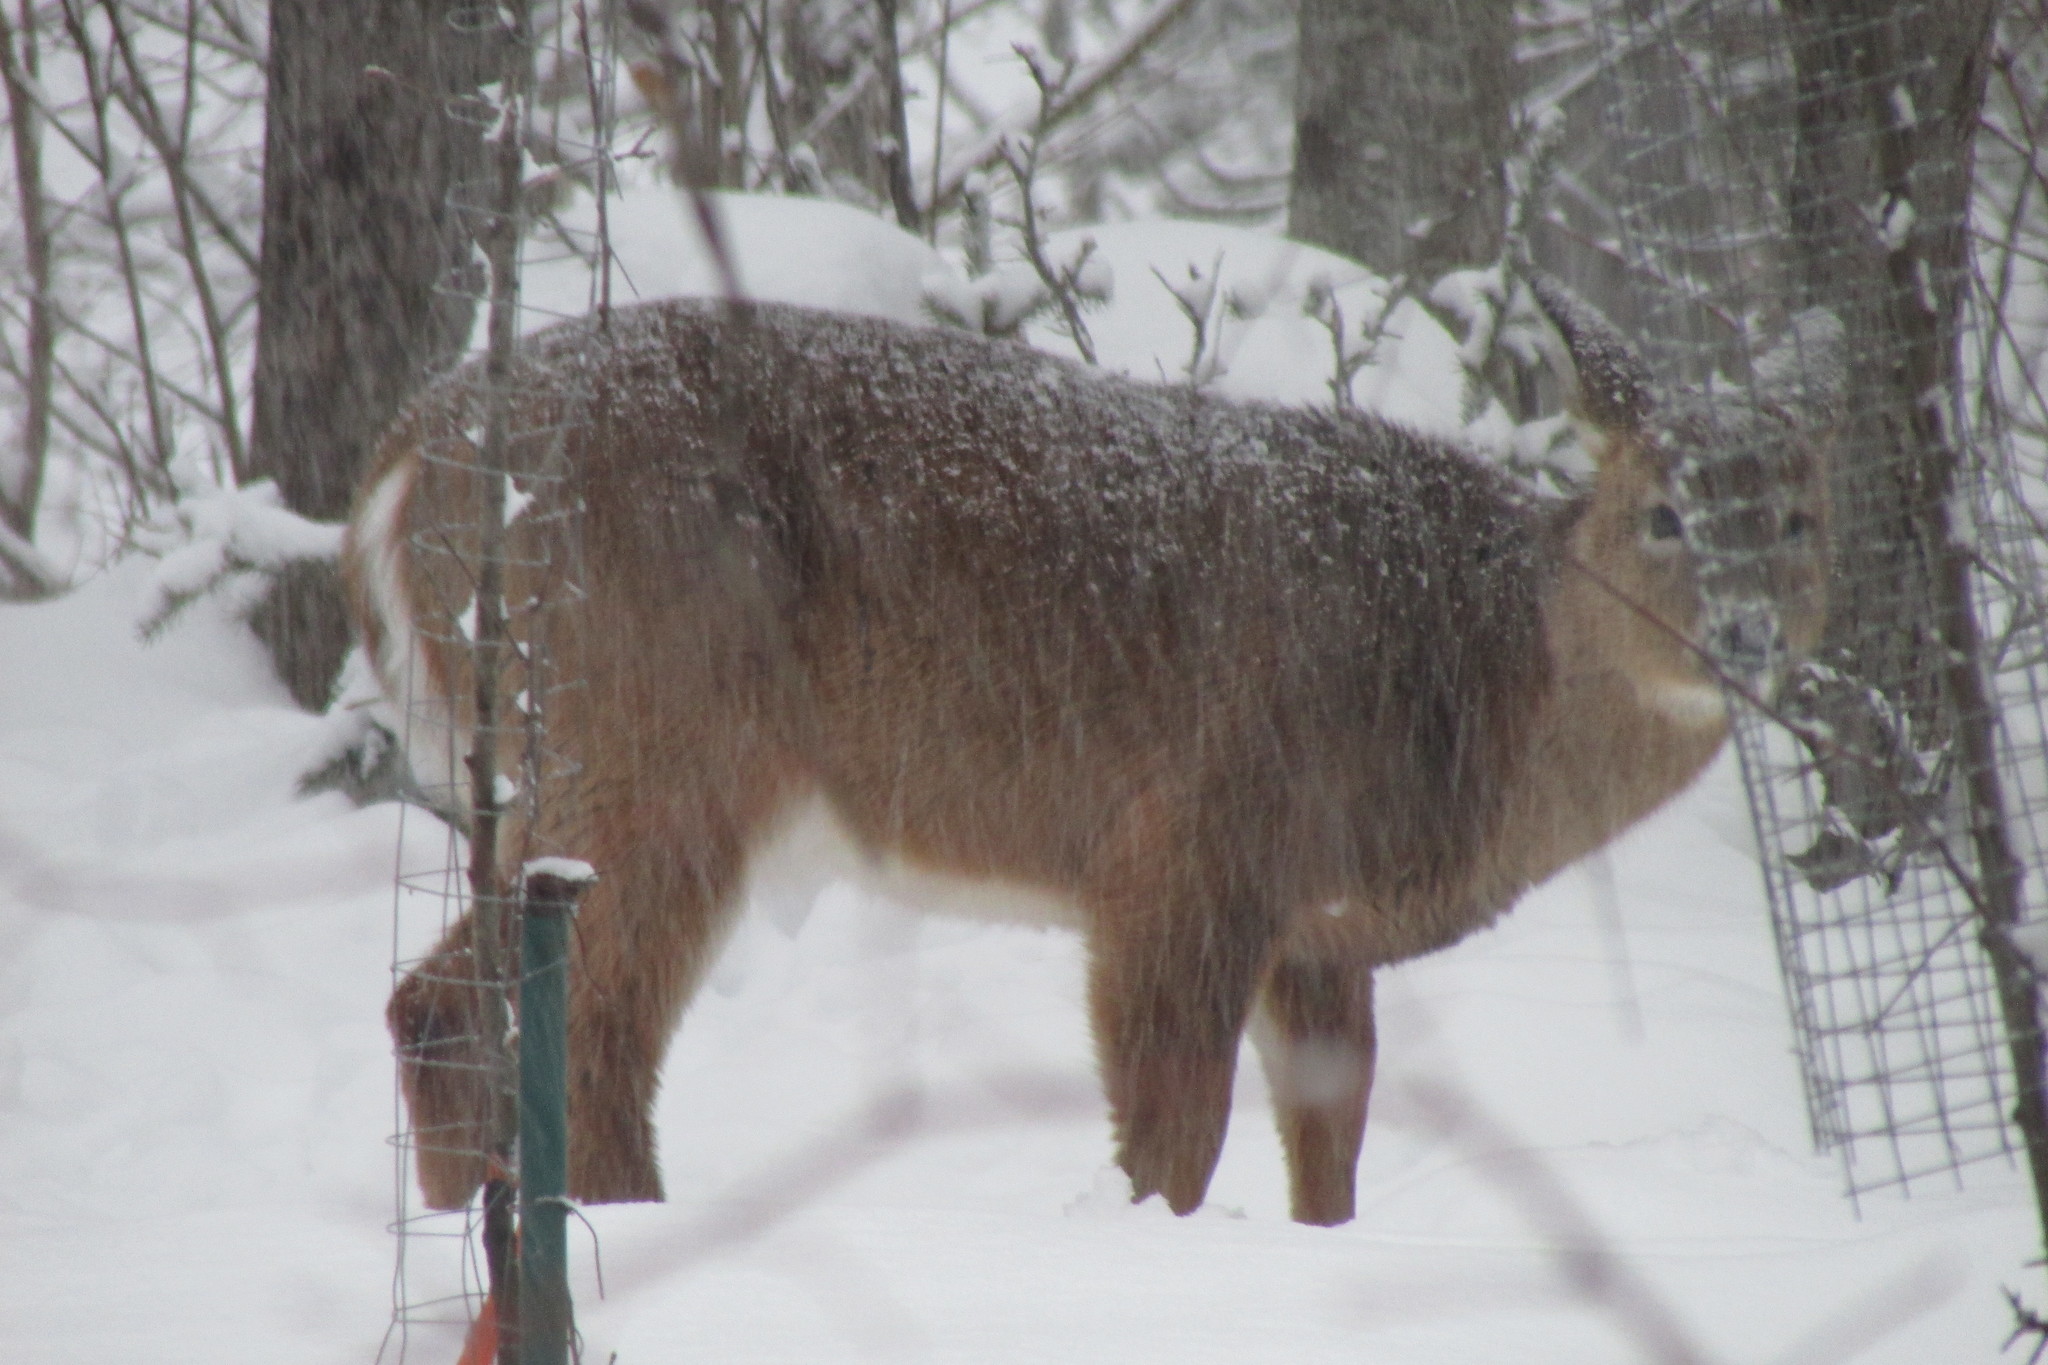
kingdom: Animalia
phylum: Chordata
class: Mammalia
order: Artiodactyla
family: Cervidae
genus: Odocoileus
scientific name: Odocoileus virginianus
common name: White-tailed deer
